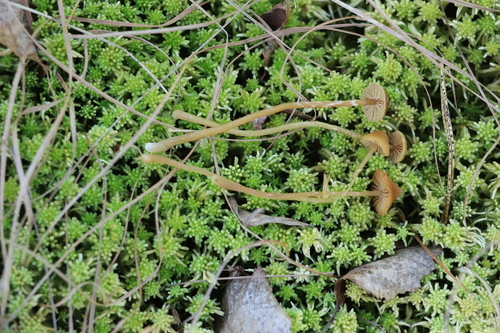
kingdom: Fungi
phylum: Basidiomycota
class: Agaricomycetes
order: Agaricales
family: Hymenogastraceae
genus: Galerina
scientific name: Galerina paludosa
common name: Bog bell
